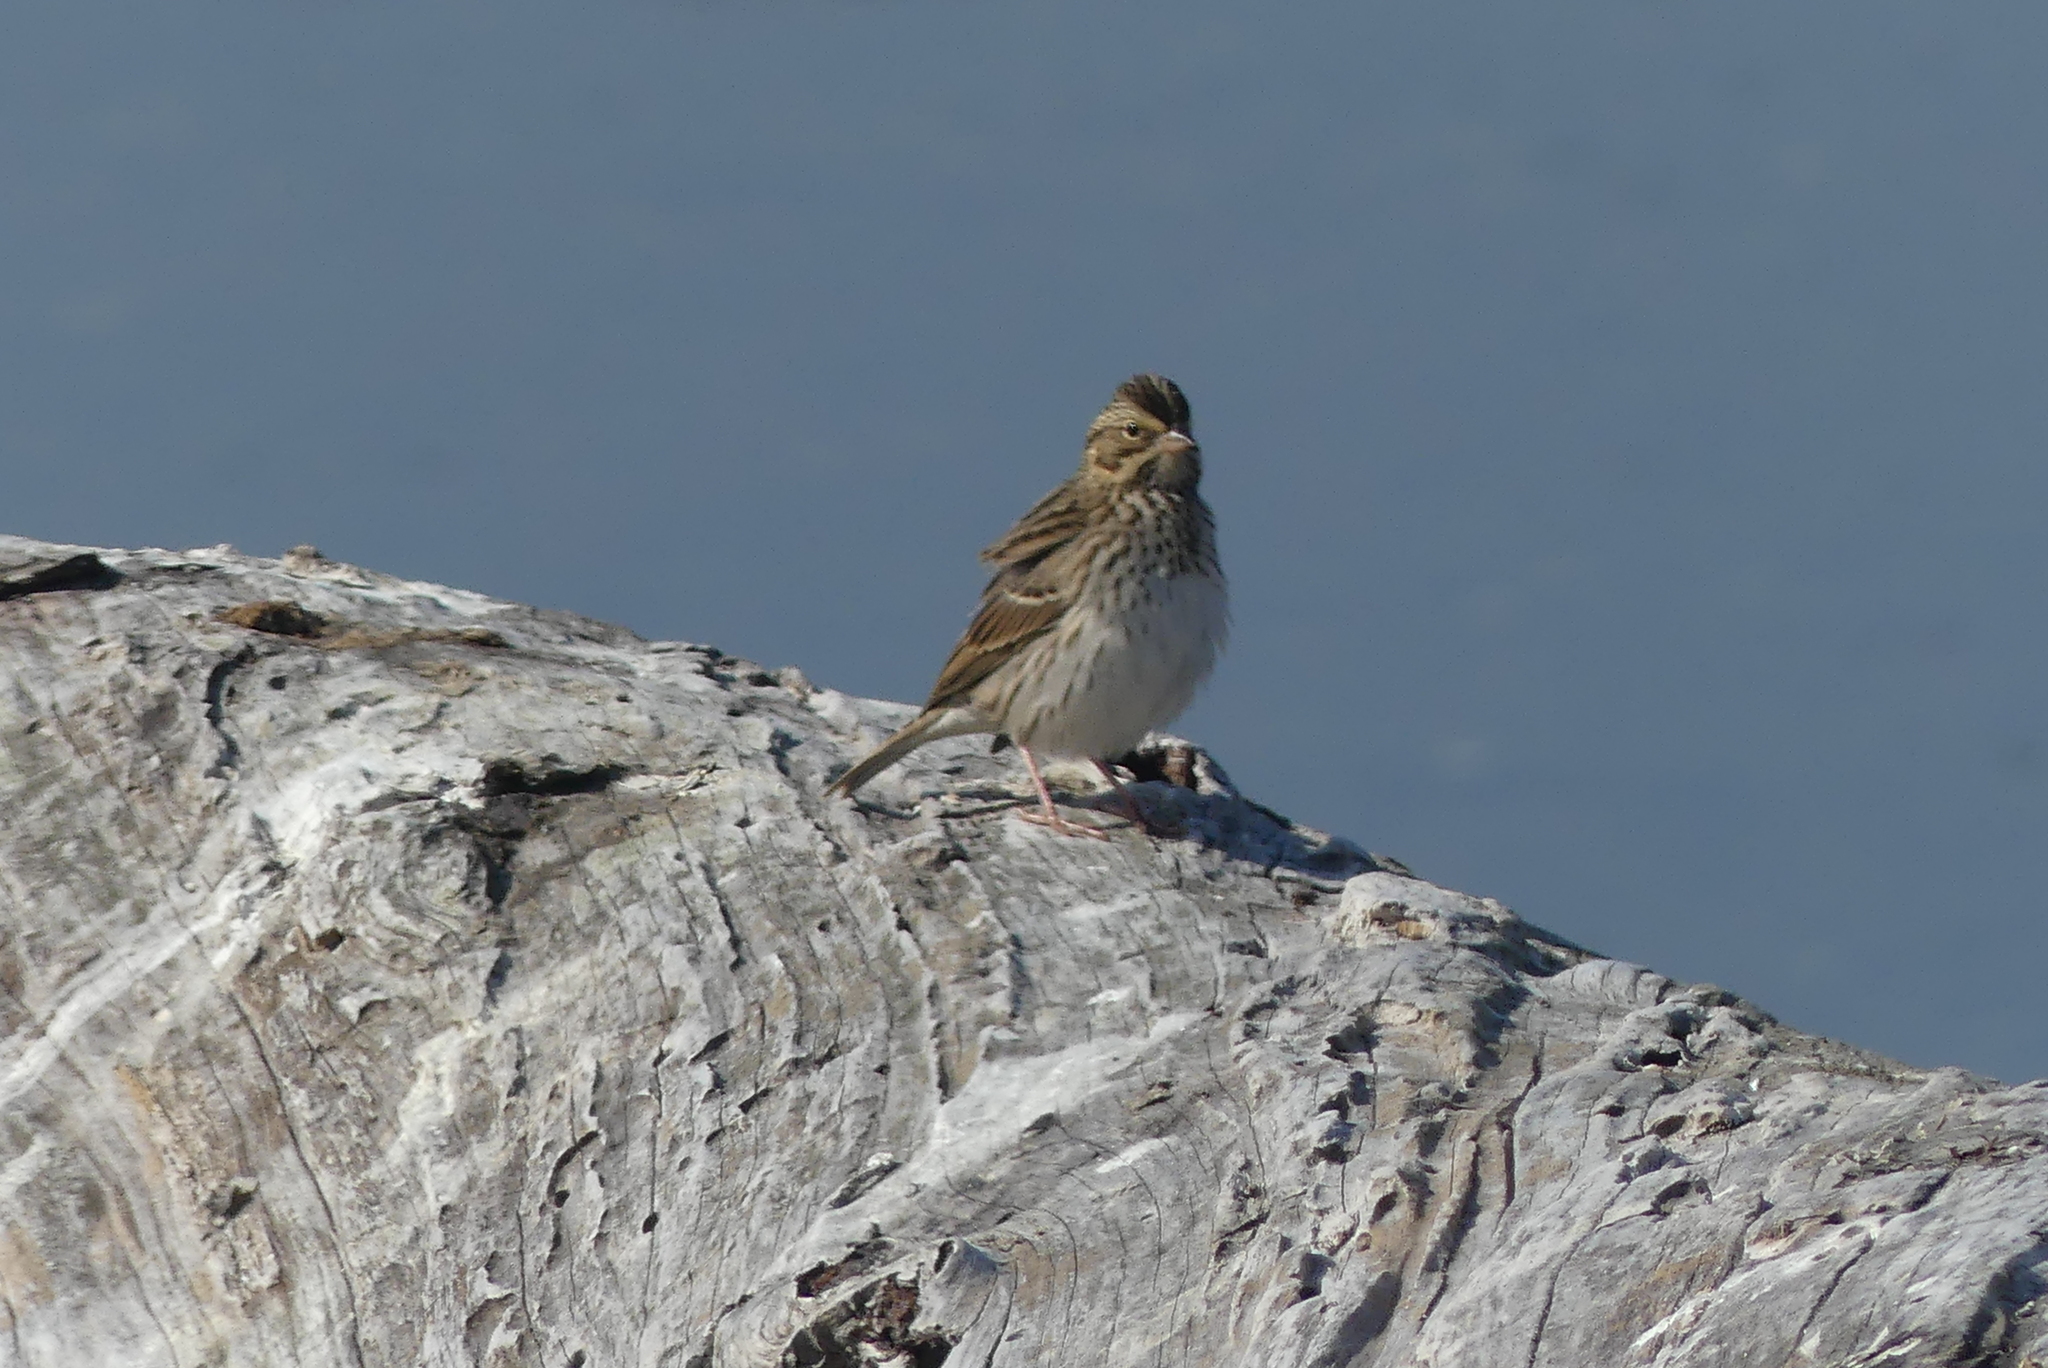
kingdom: Animalia
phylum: Chordata
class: Aves
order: Passeriformes
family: Passerellidae
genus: Passerculus
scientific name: Passerculus sandwichensis
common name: Savannah sparrow
